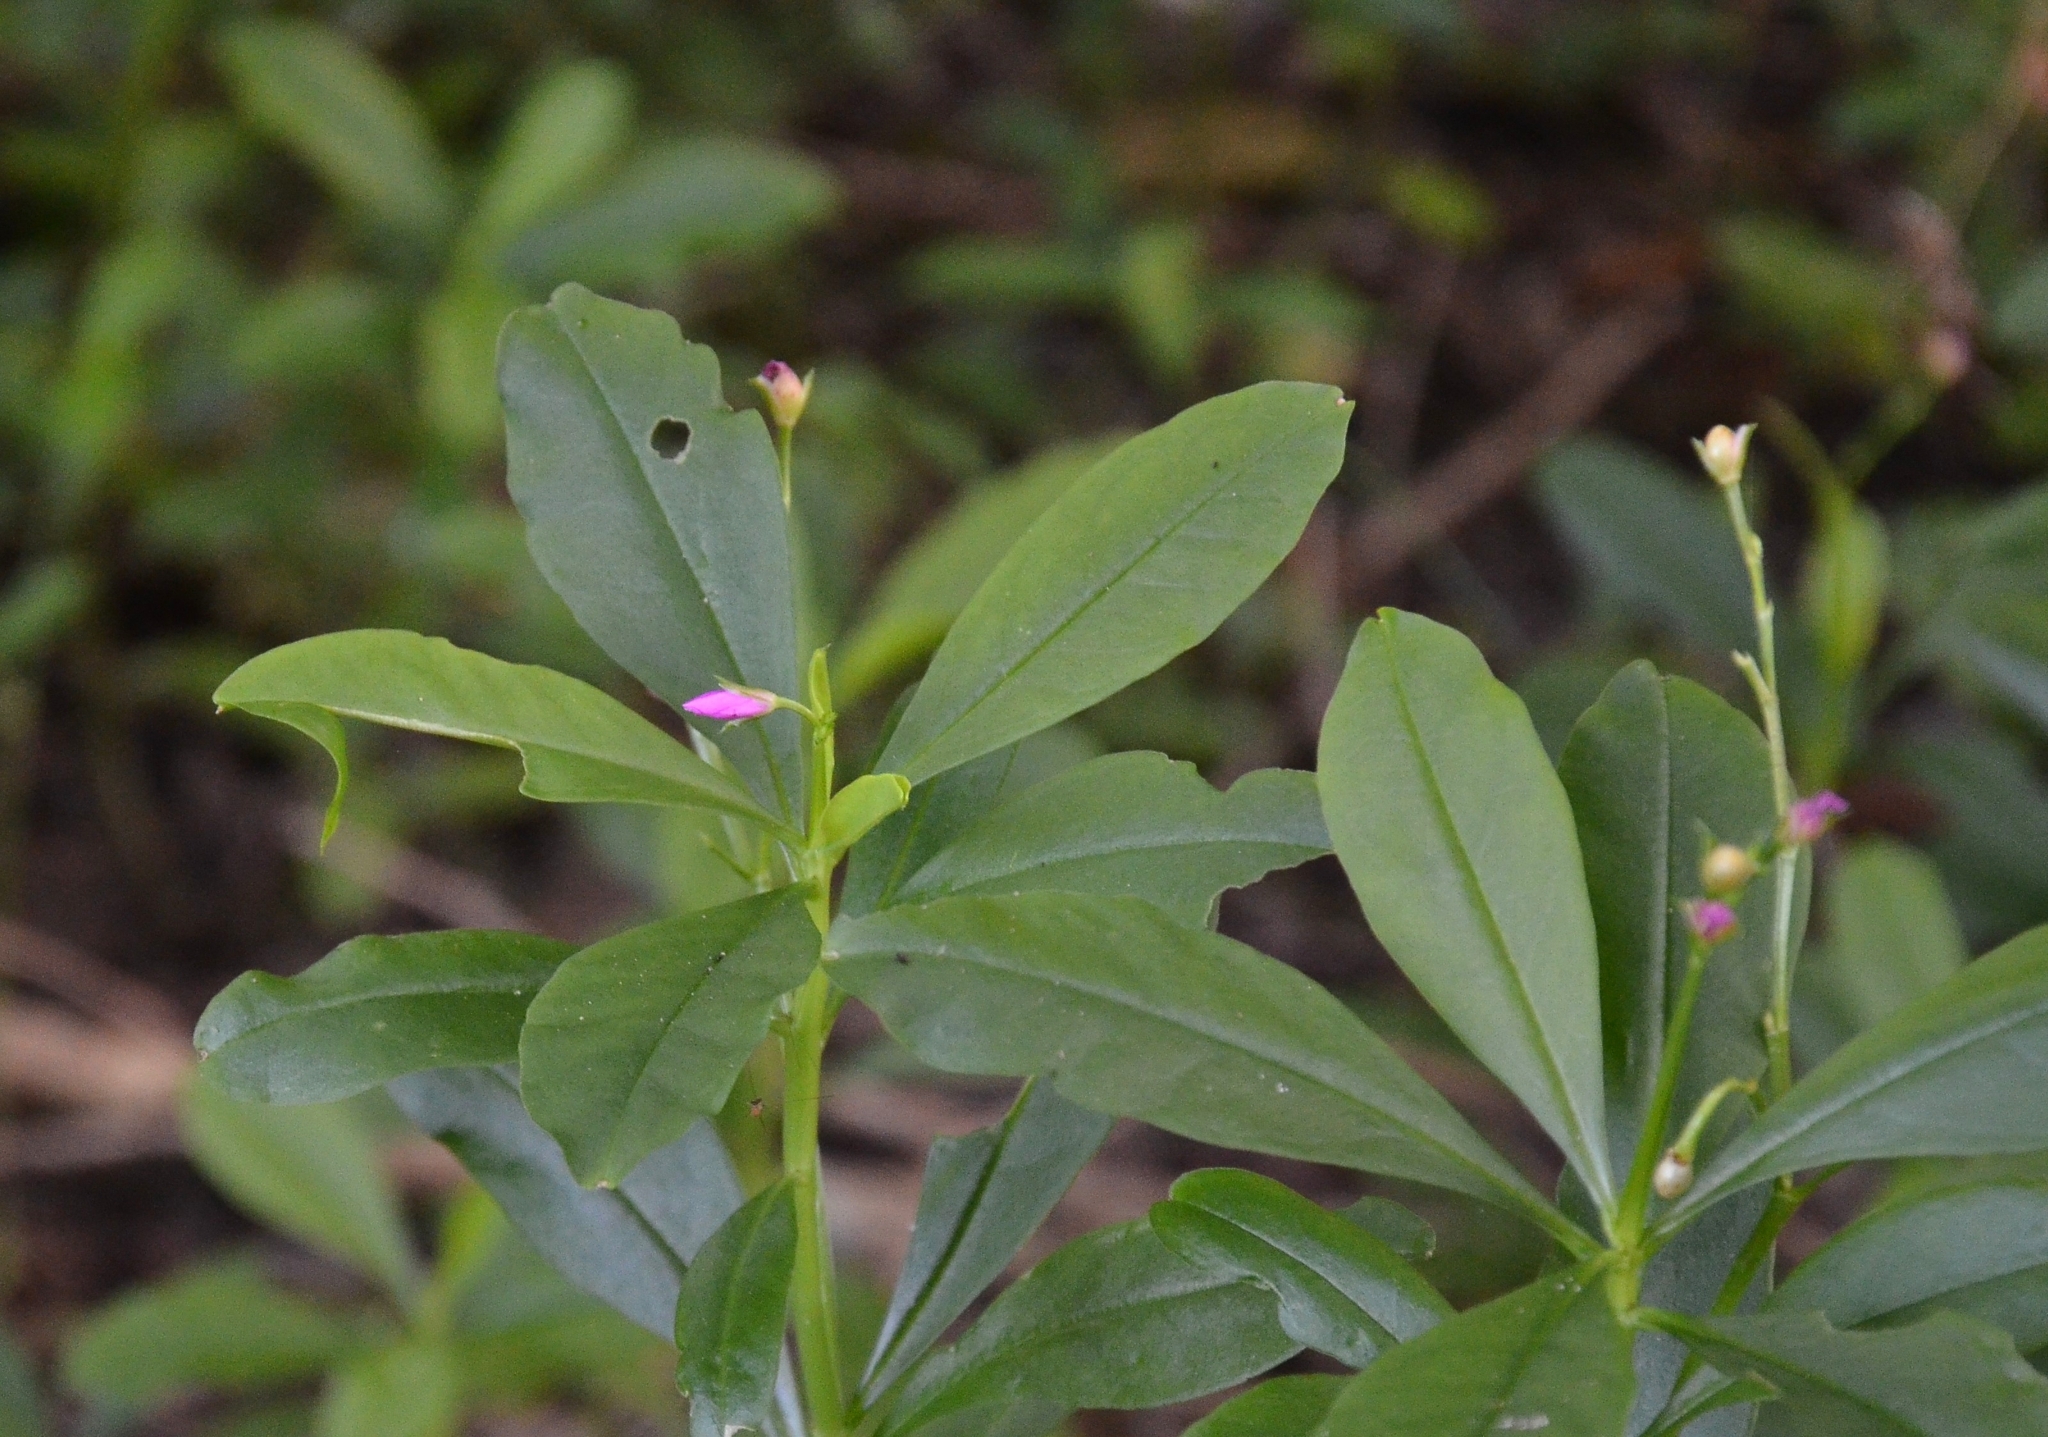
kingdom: Plantae
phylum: Tracheophyta
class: Magnoliopsida
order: Caryophyllales
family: Talinaceae
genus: Talinum
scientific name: Talinum fruticosum
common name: Verdolaga-francesa
